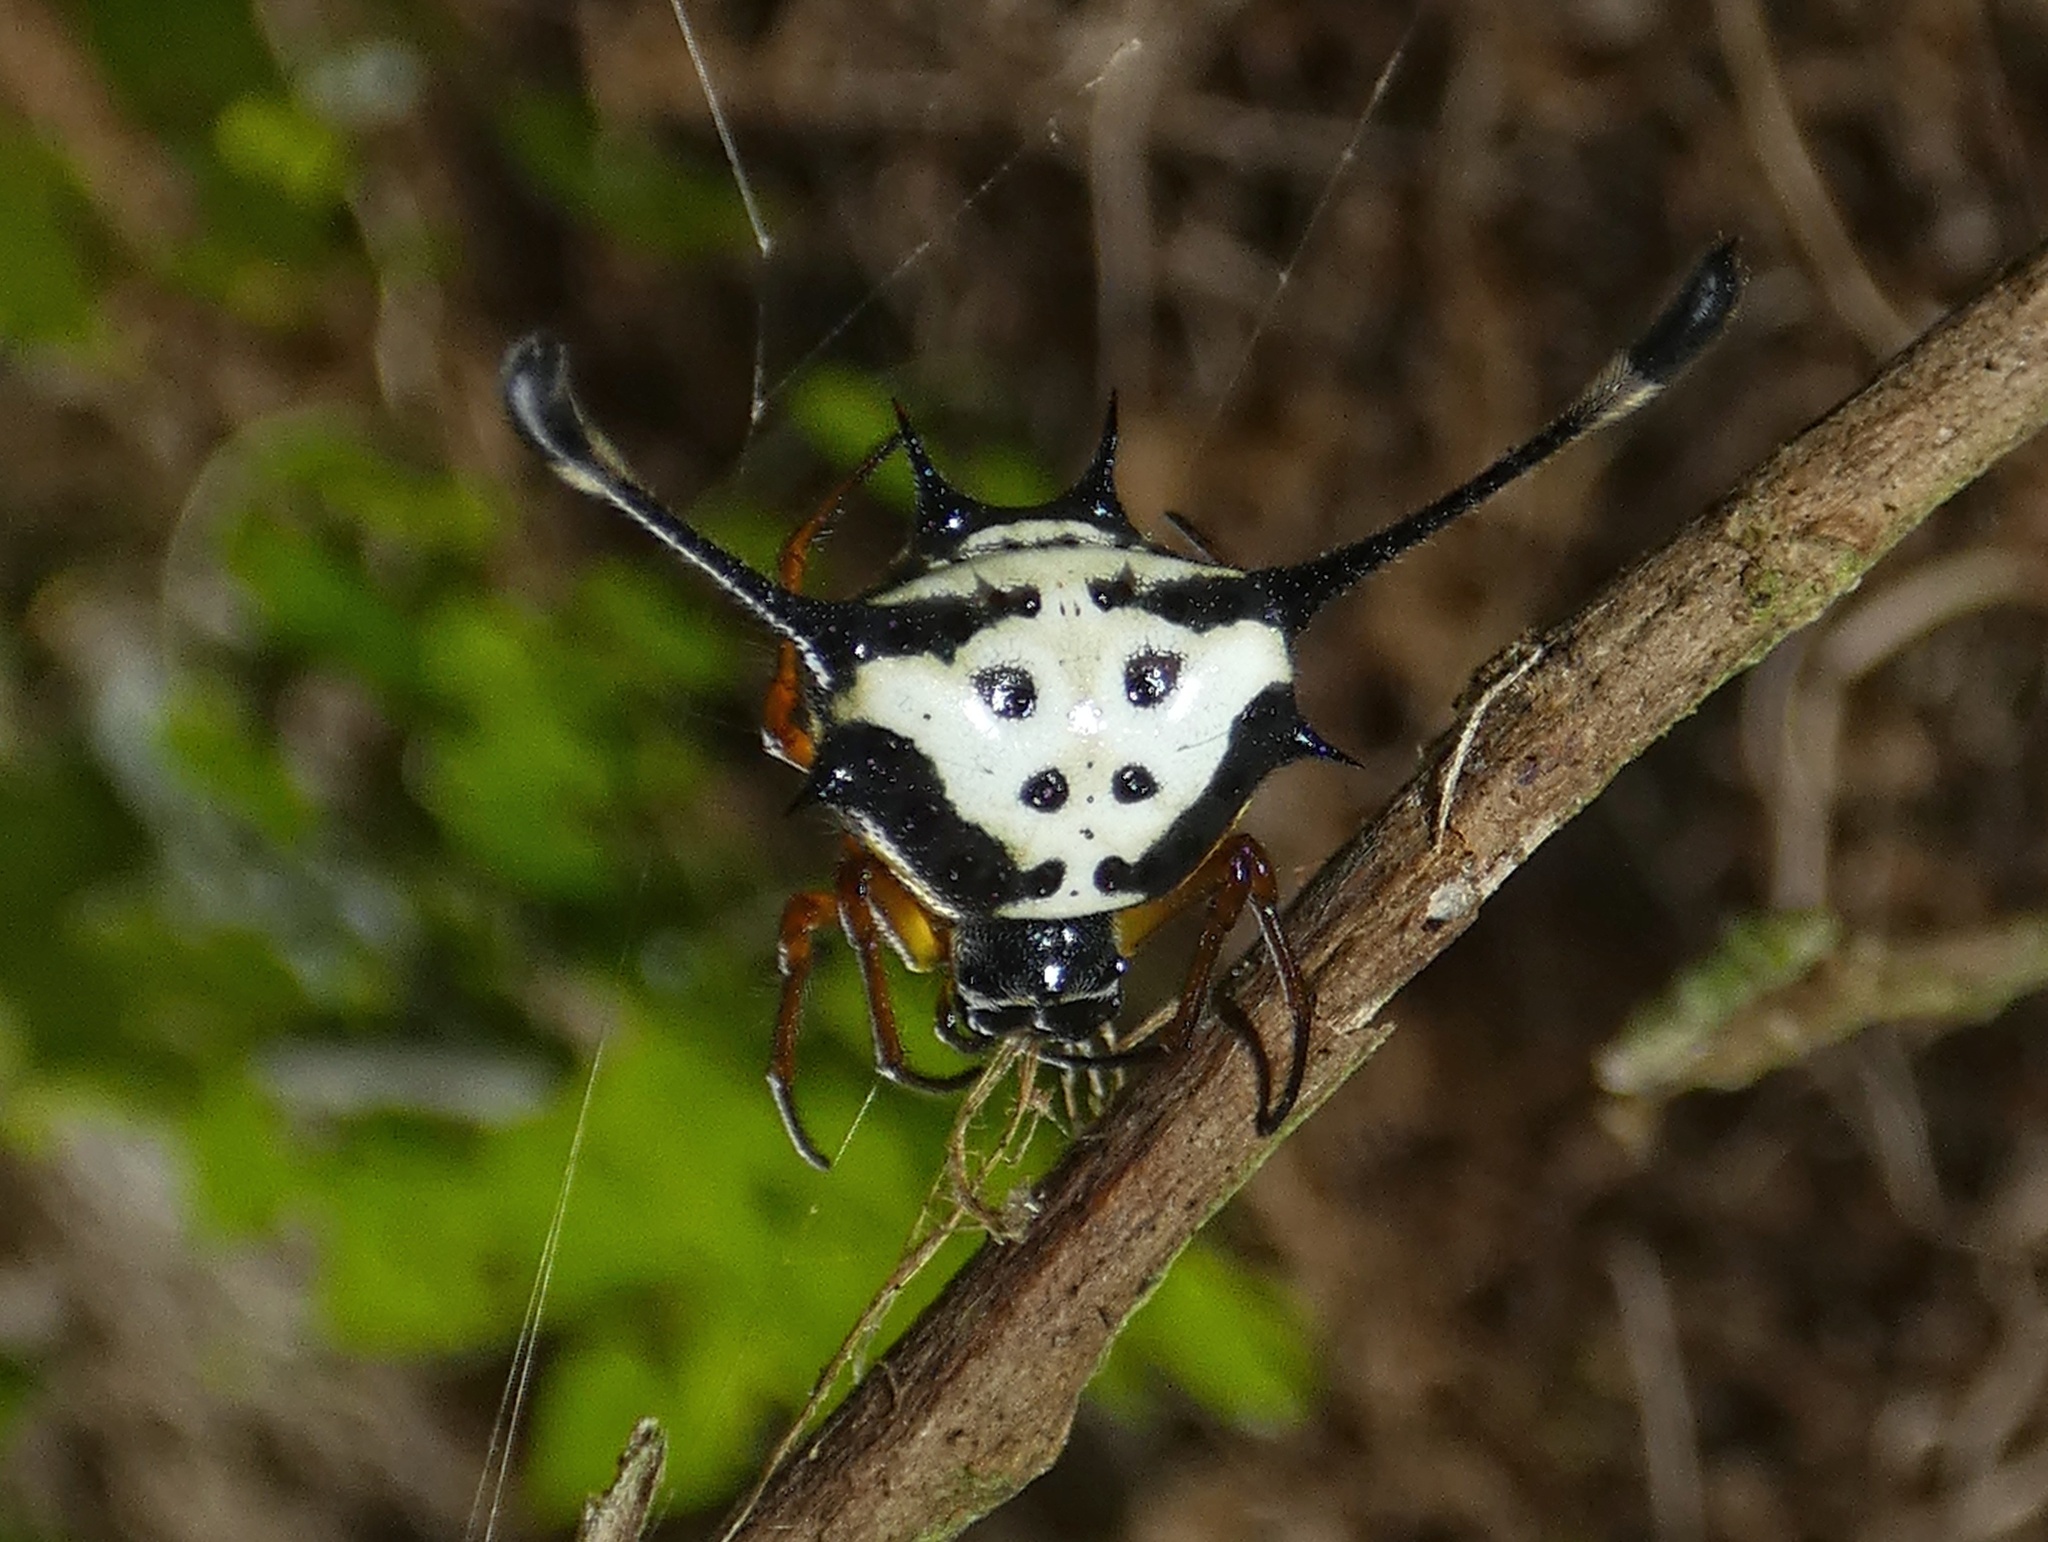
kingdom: Animalia
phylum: Arthropoda
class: Arachnida
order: Araneae
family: Araneidae
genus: Gasteracantha
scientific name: Gasteracantha janopol
